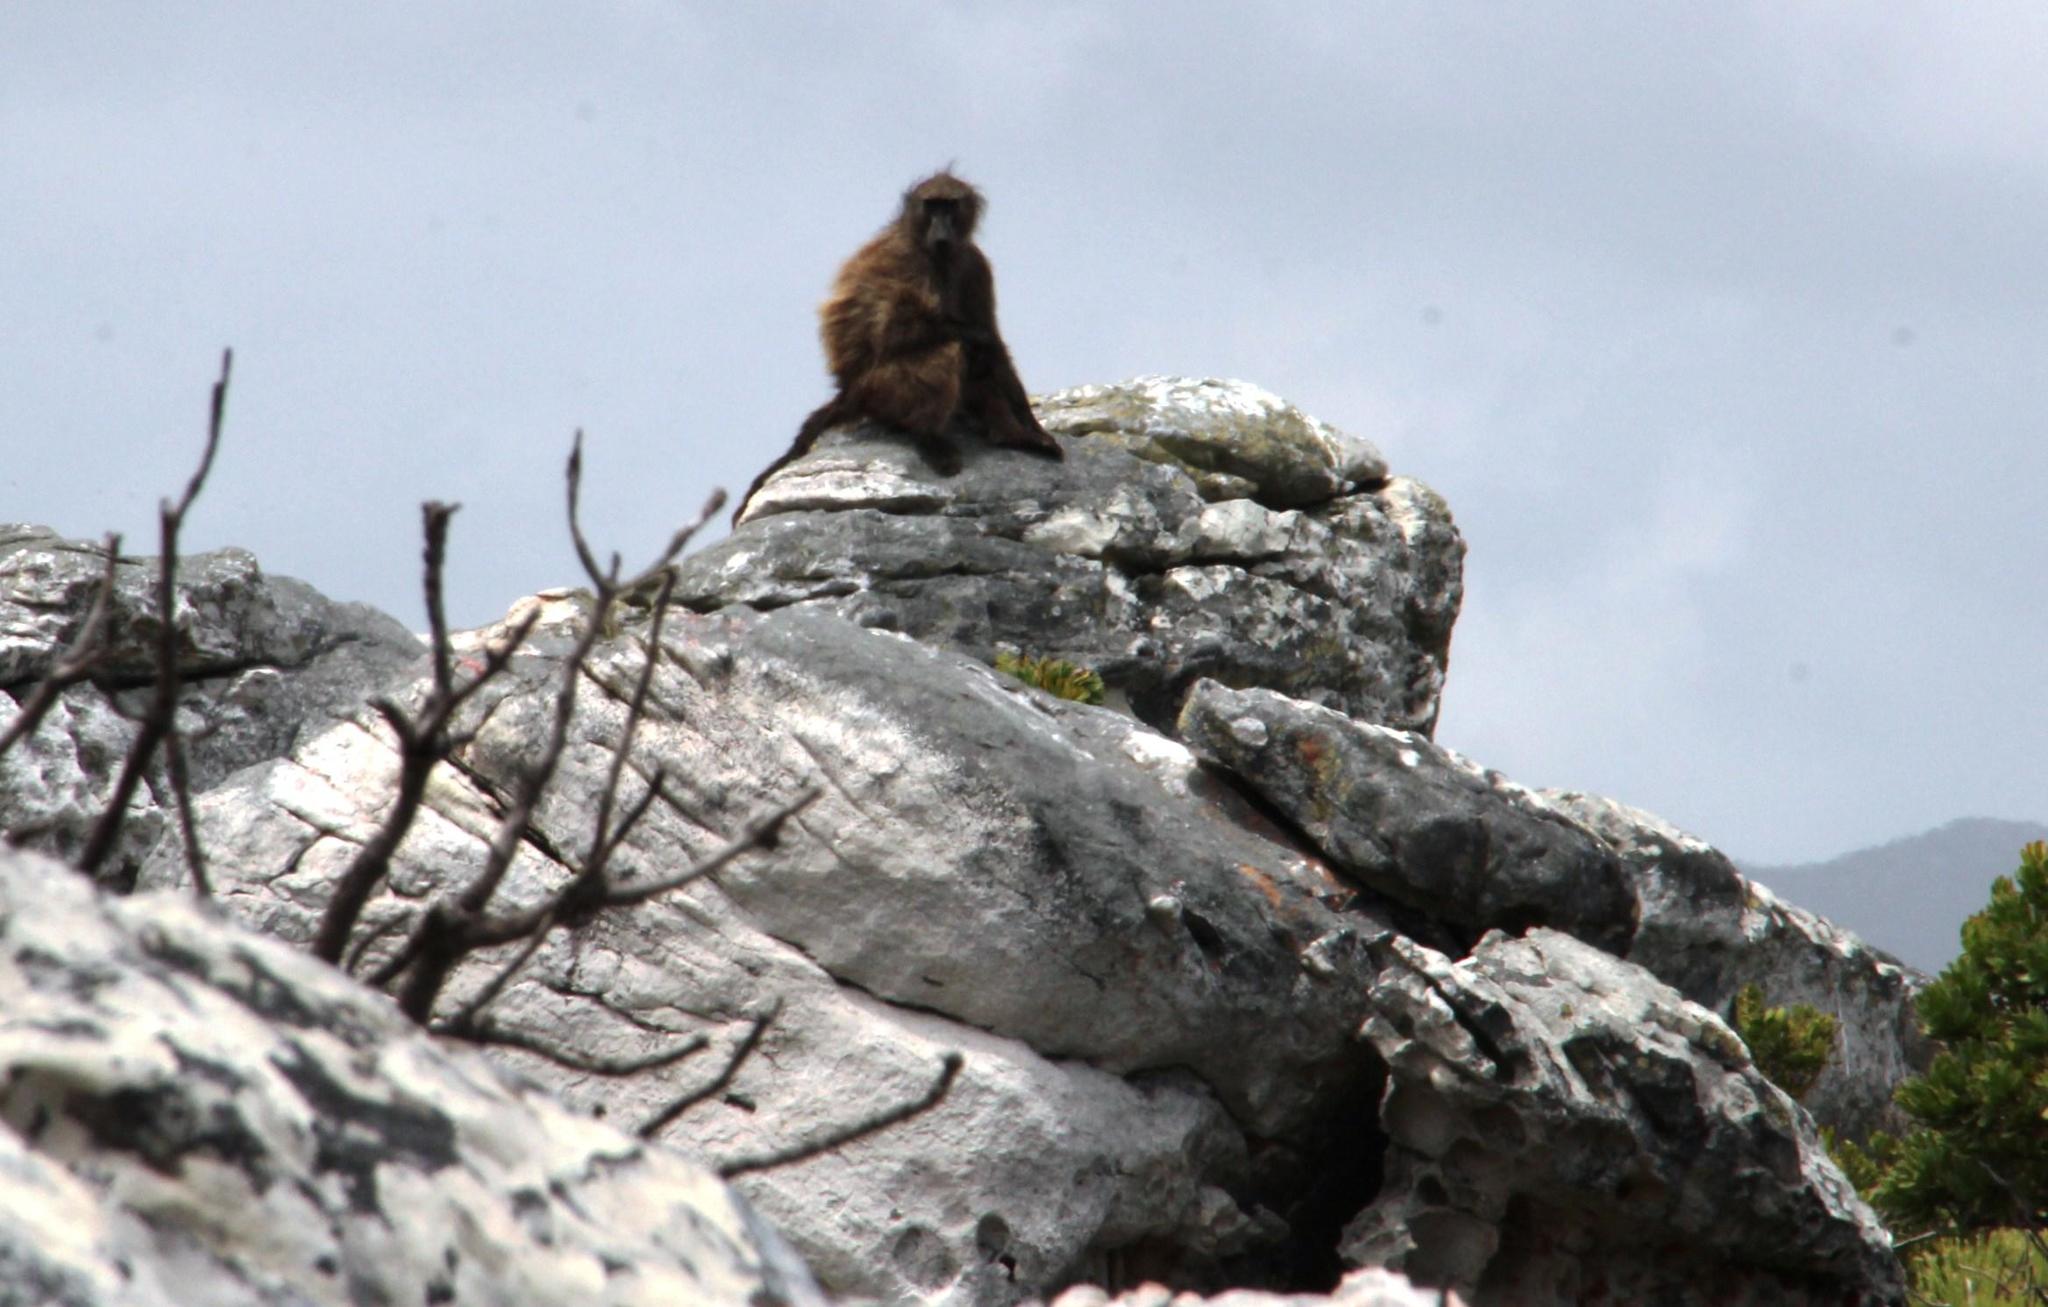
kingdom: Animalia
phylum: Chordata
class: Mammalia
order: Primates
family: Cercopithecidae
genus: Papio
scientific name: Papio ursinus
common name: Chacma baboon
